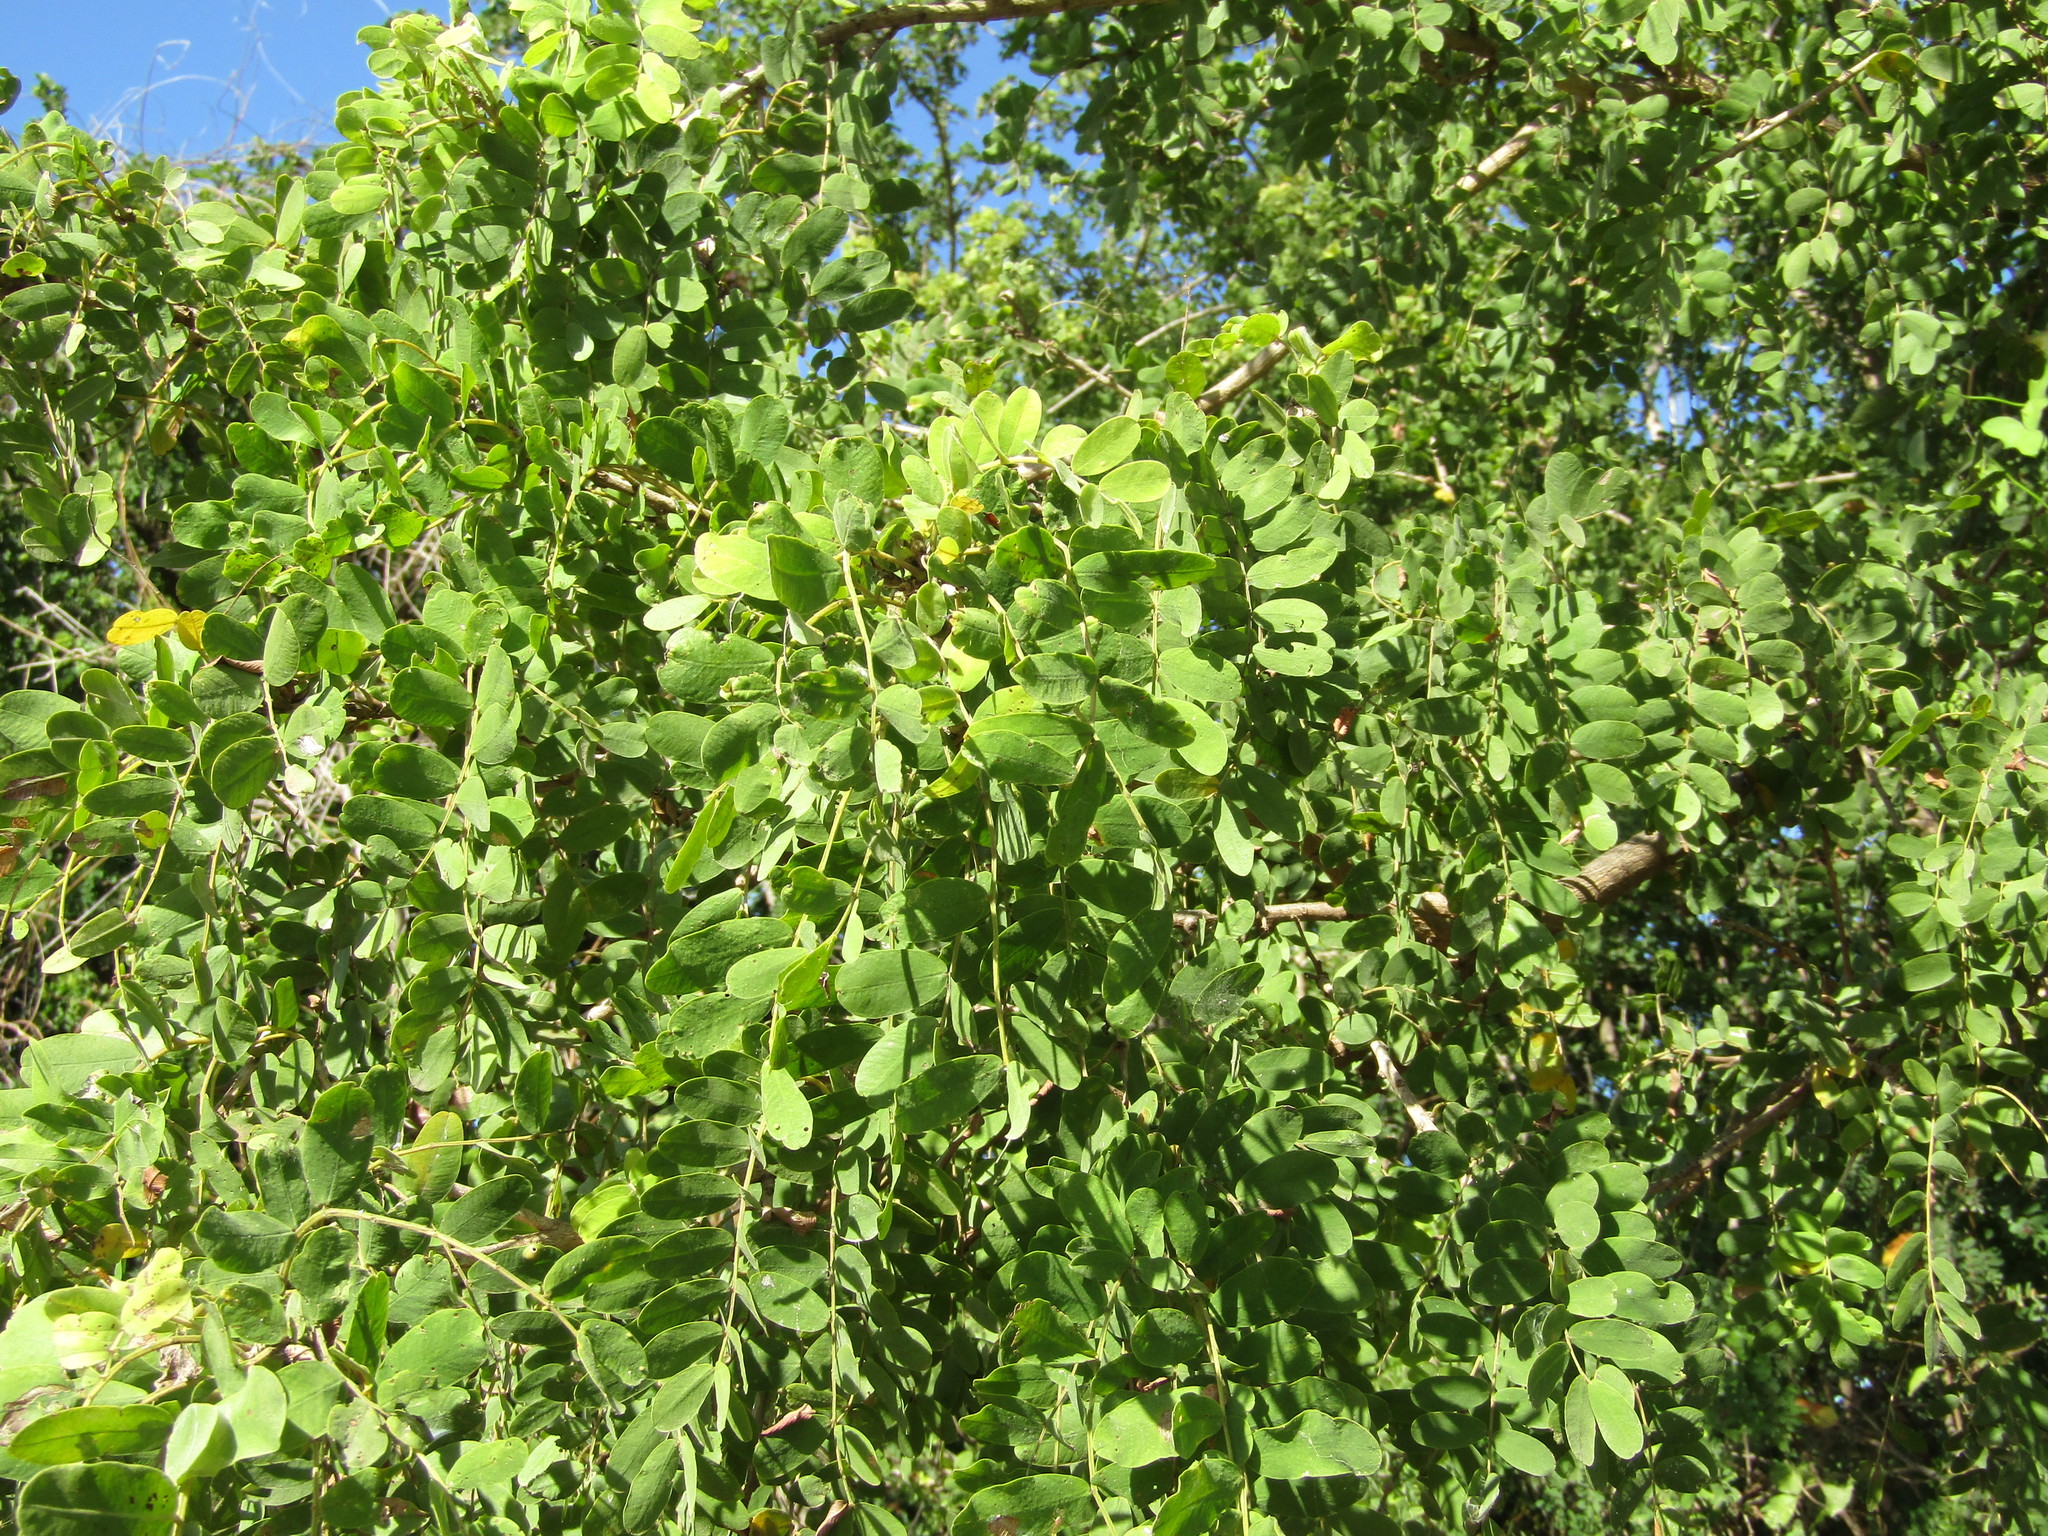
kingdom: Plantae
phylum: Tracheophyta
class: Magnoliopsida
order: Fabales
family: Fabaceae
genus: Geoffroea
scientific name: Geoffroea spinosa
